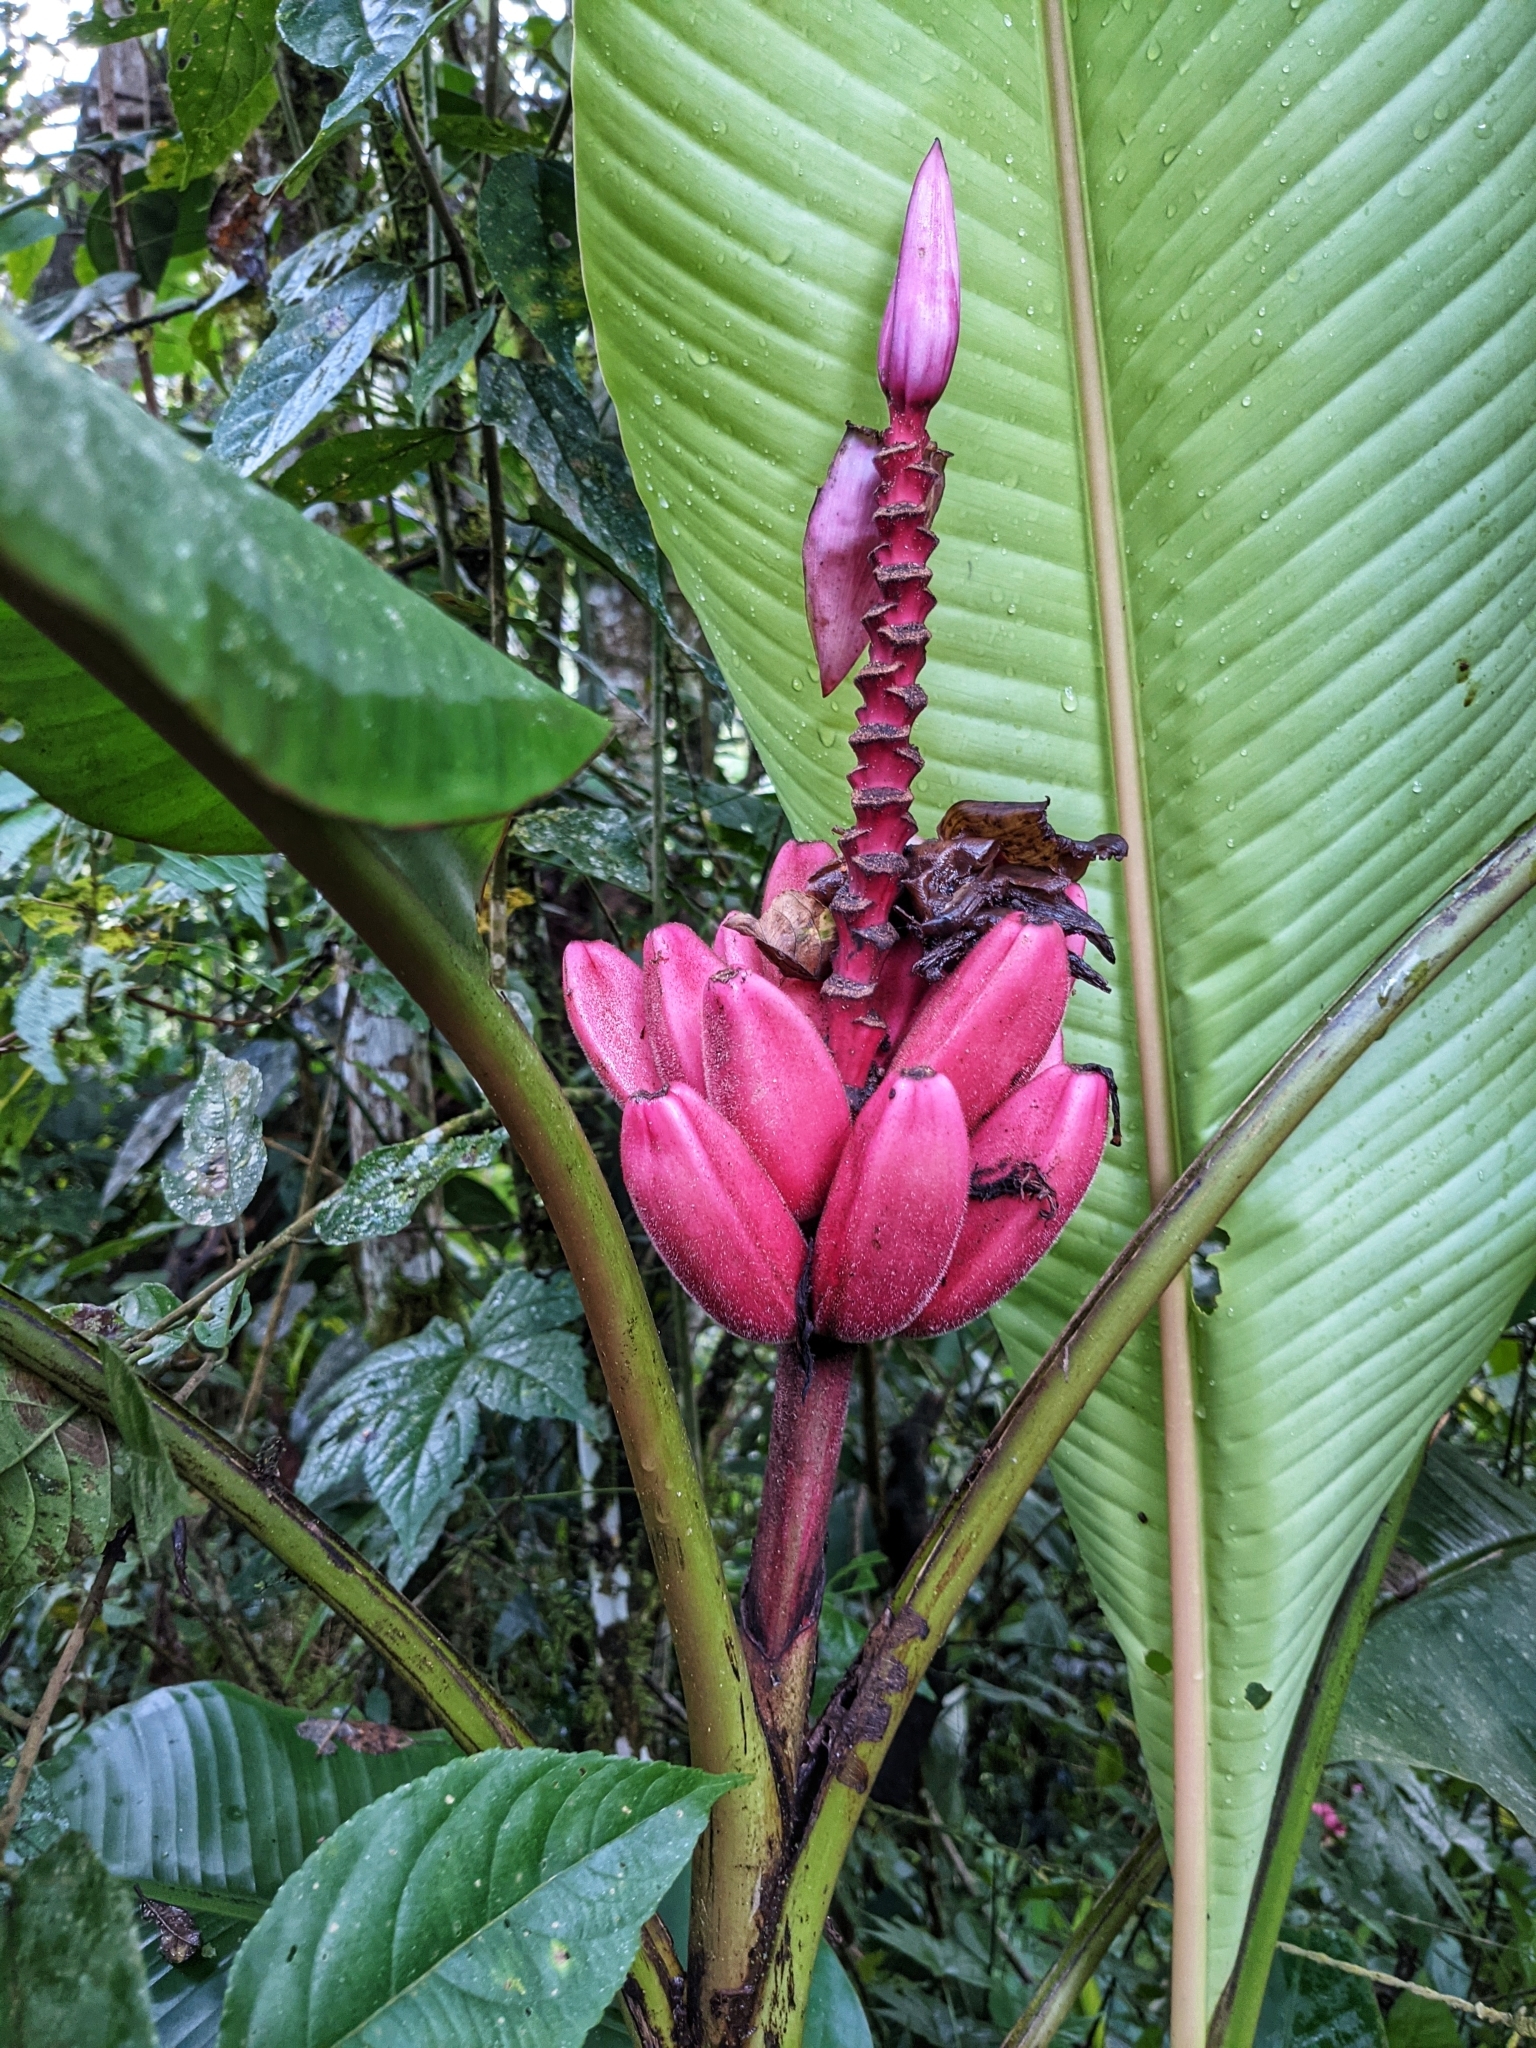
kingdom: Plantae
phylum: Tracheophyta
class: Liliopsida
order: Zingiberales
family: Musaceae
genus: Musa
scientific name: Musa velutina
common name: Pink velvet banana
